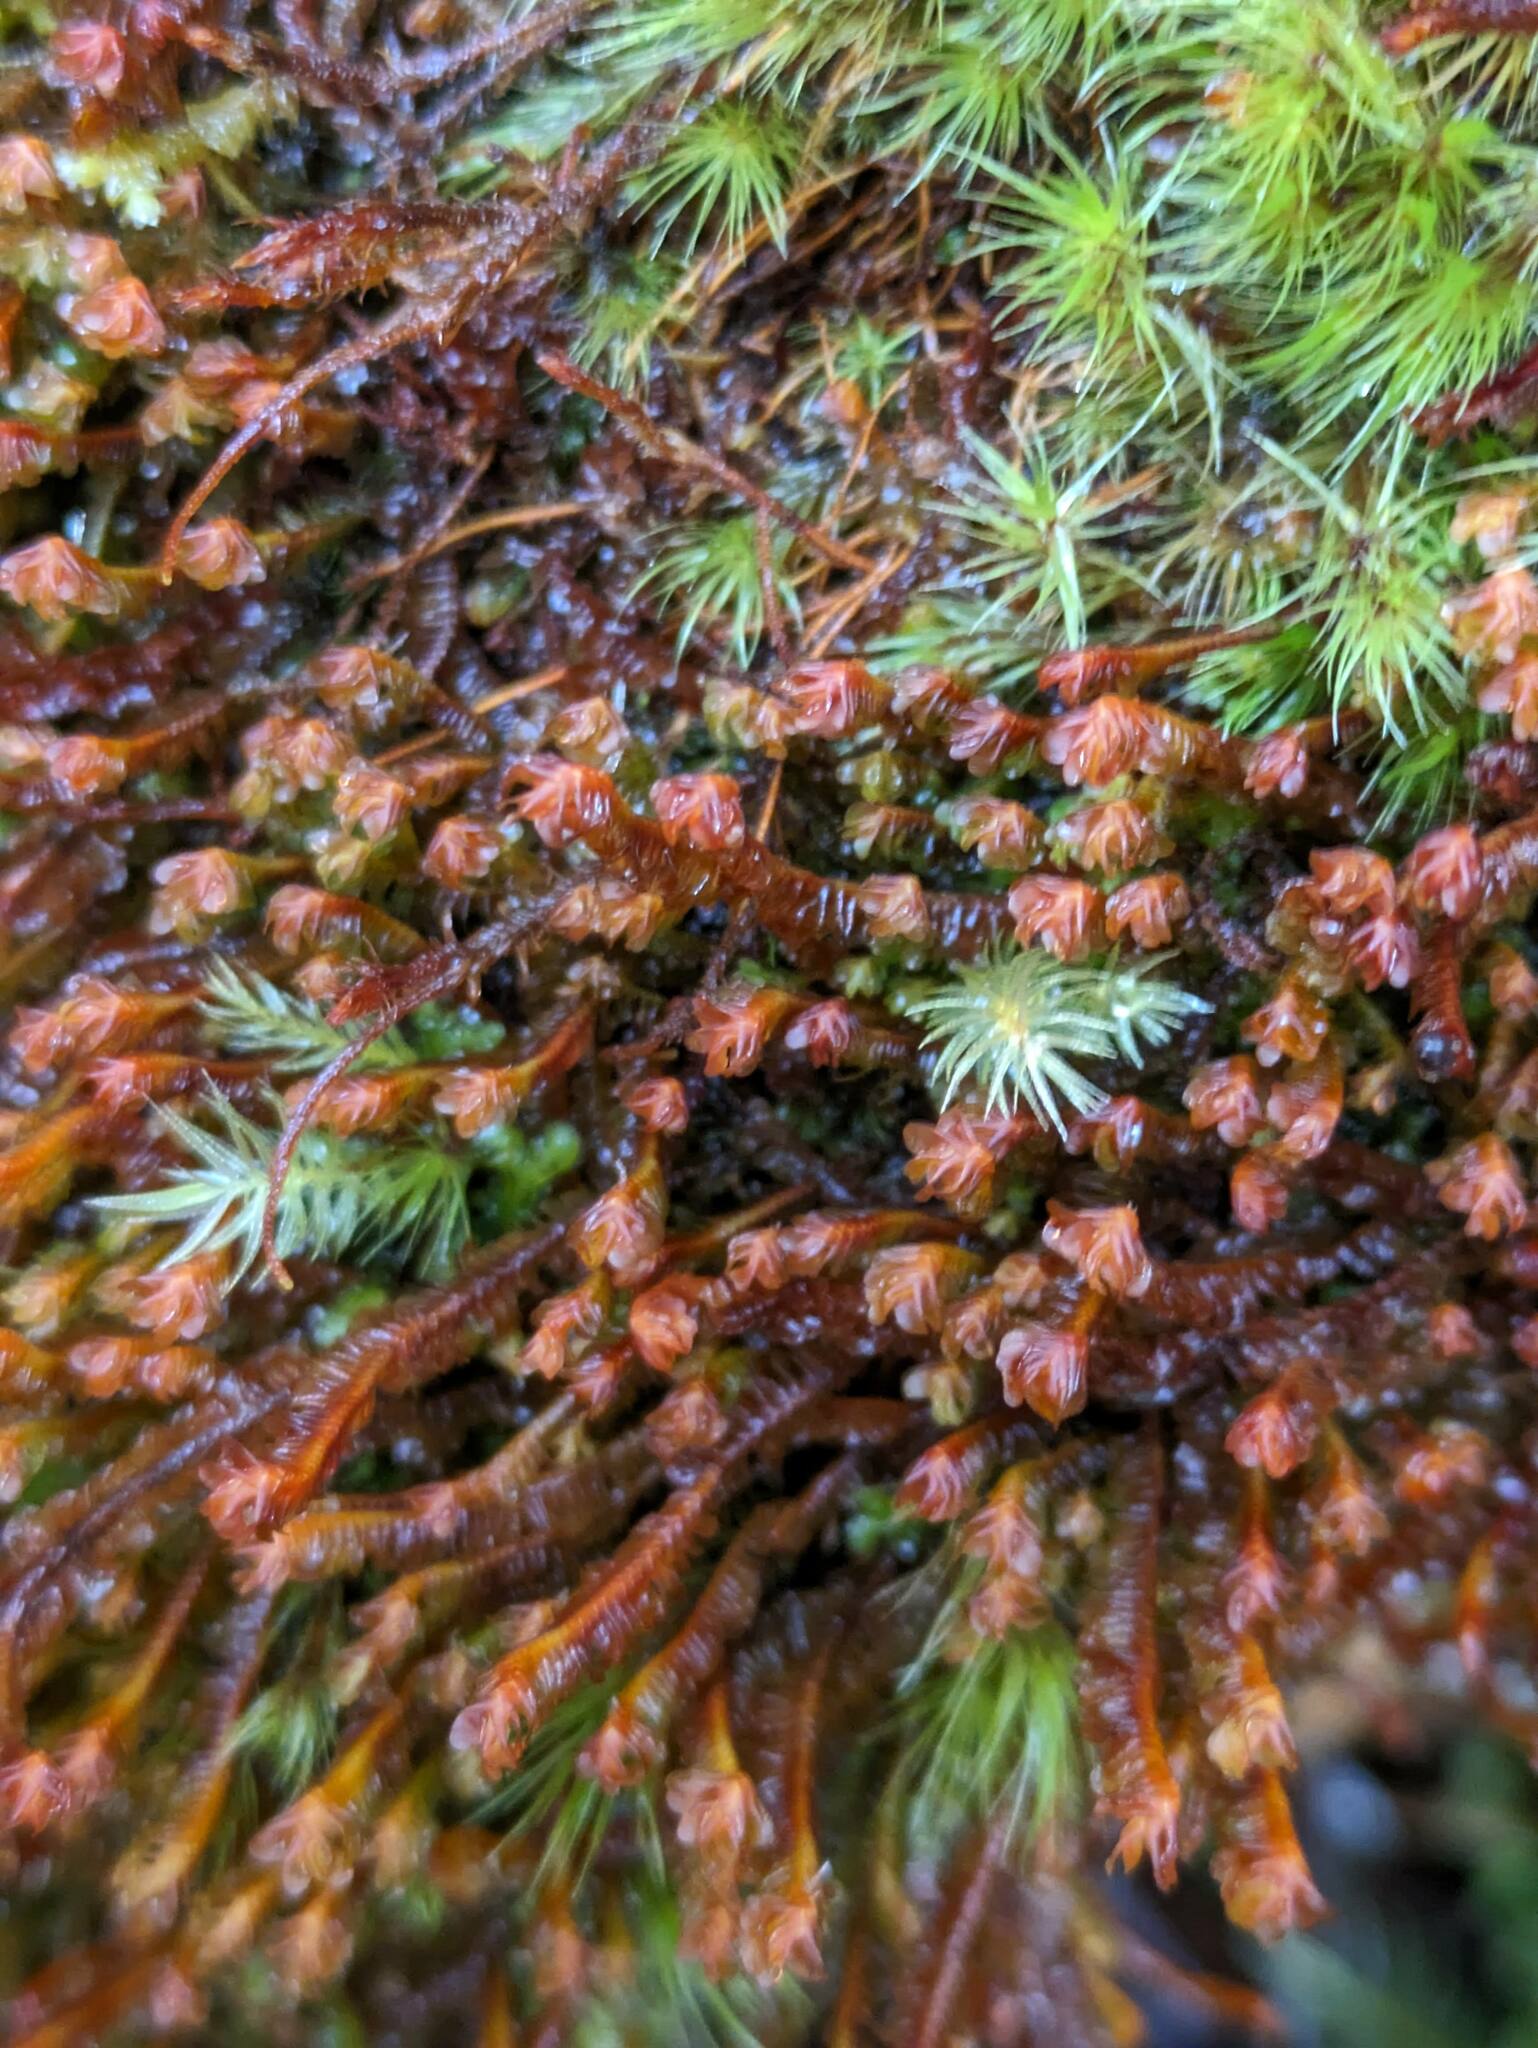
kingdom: Plantae
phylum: Marchantiophyta
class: Jungermanniopsida
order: Jungermanniales
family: Adelanthaceae
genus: Cuspidatula
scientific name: Cuspidatula robusta
